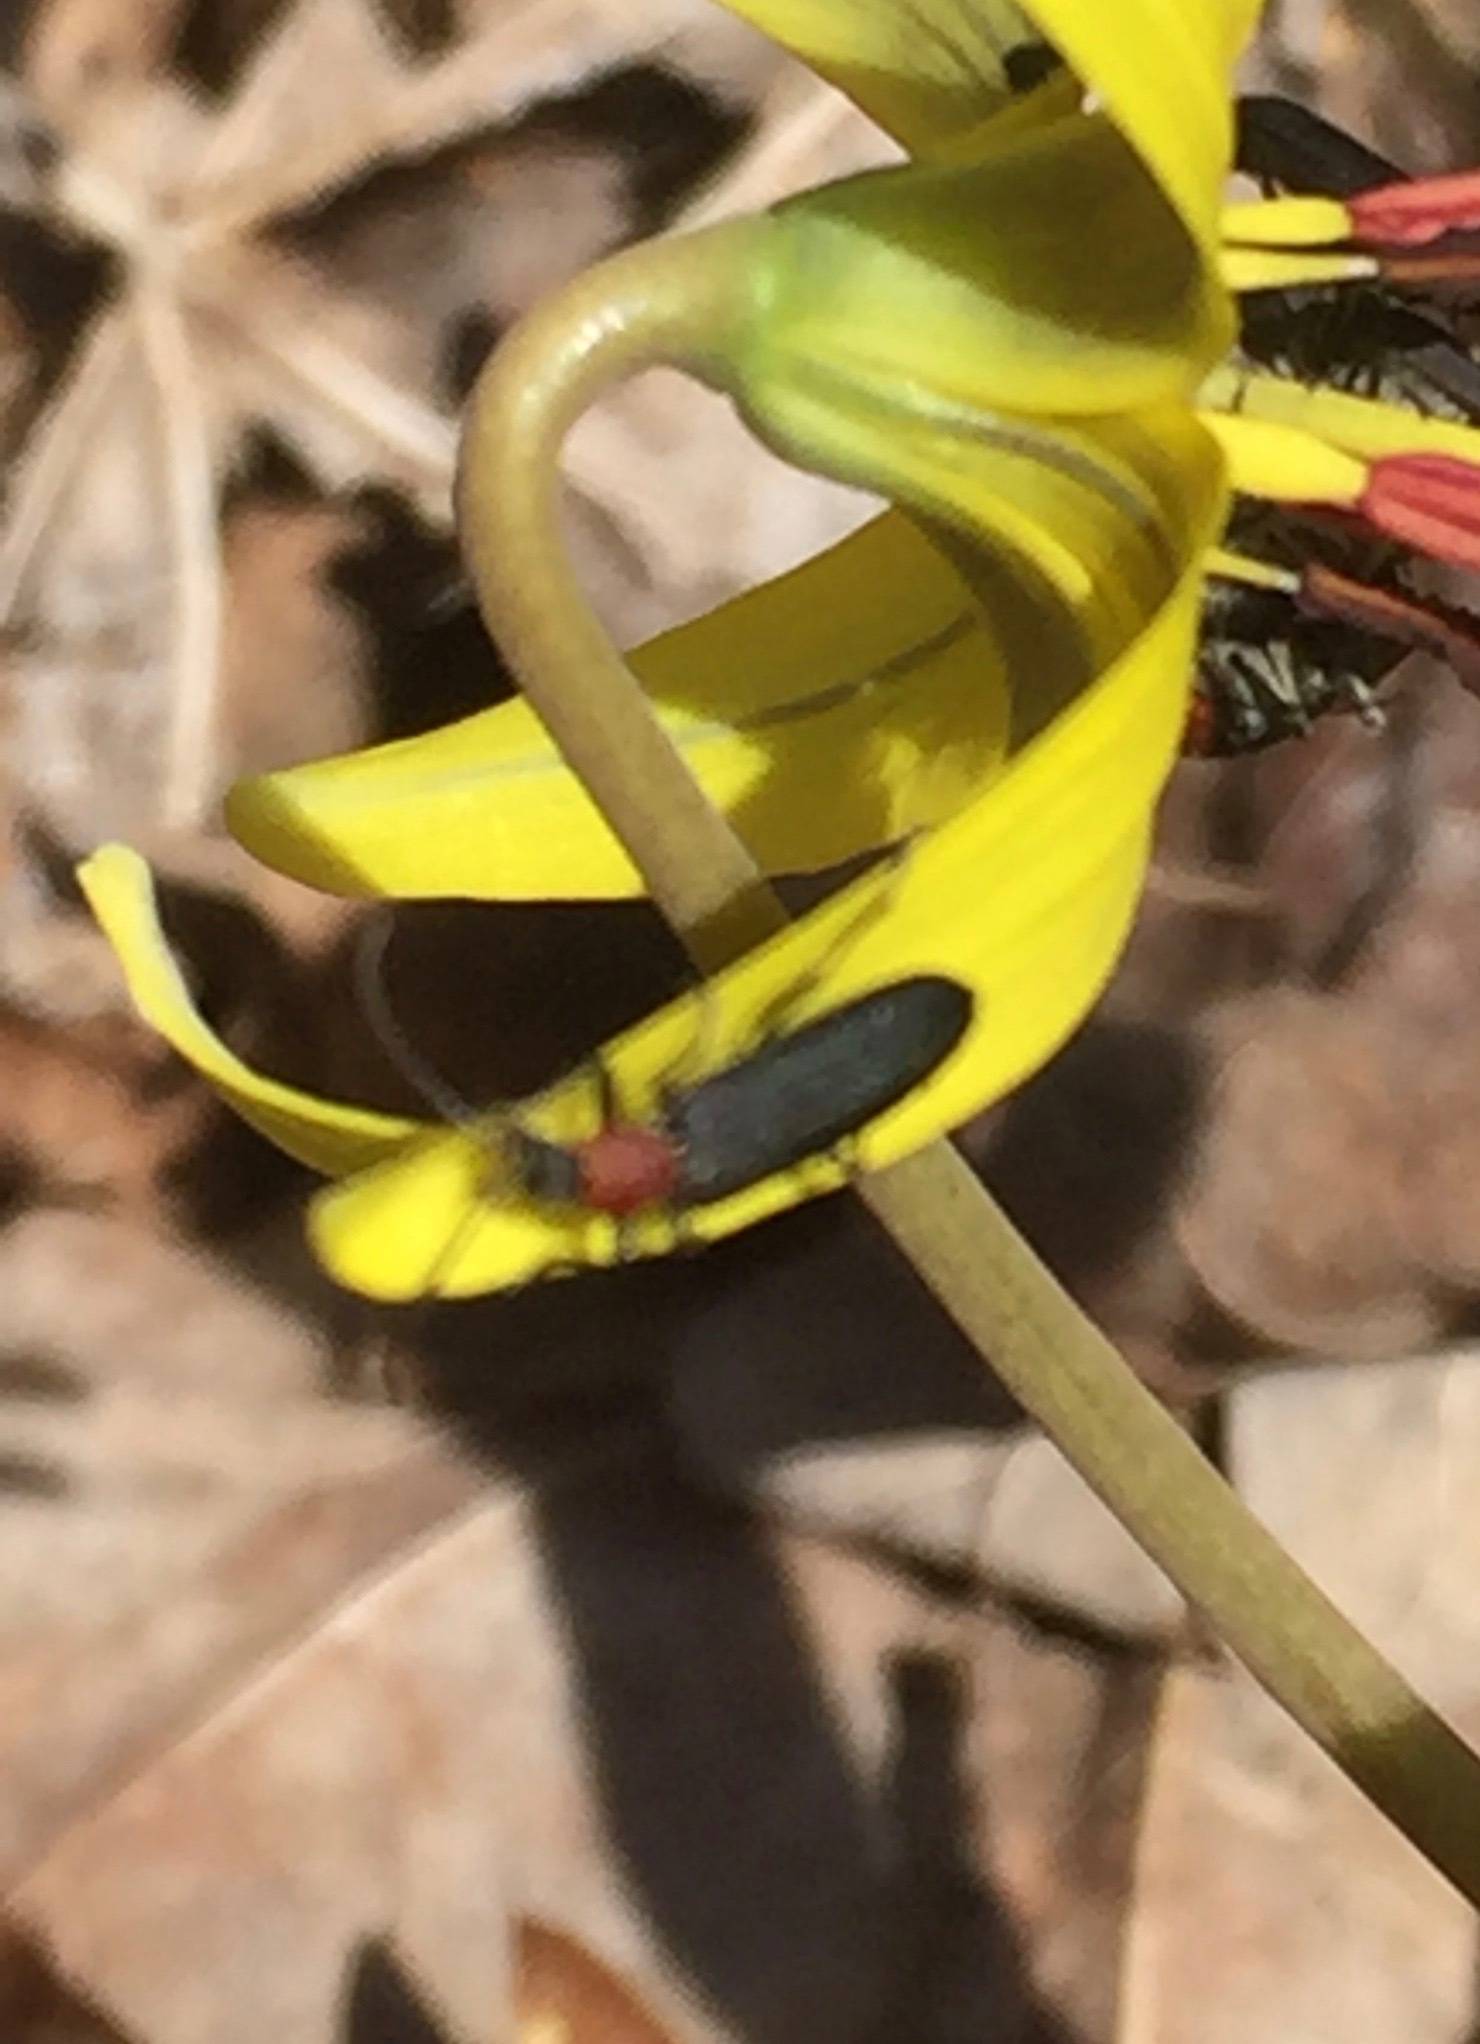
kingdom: Animalia
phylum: Arthropoda
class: Insecta
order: Coleoptera
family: Oedemeridae
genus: Ischnomera
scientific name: Ischnomera
